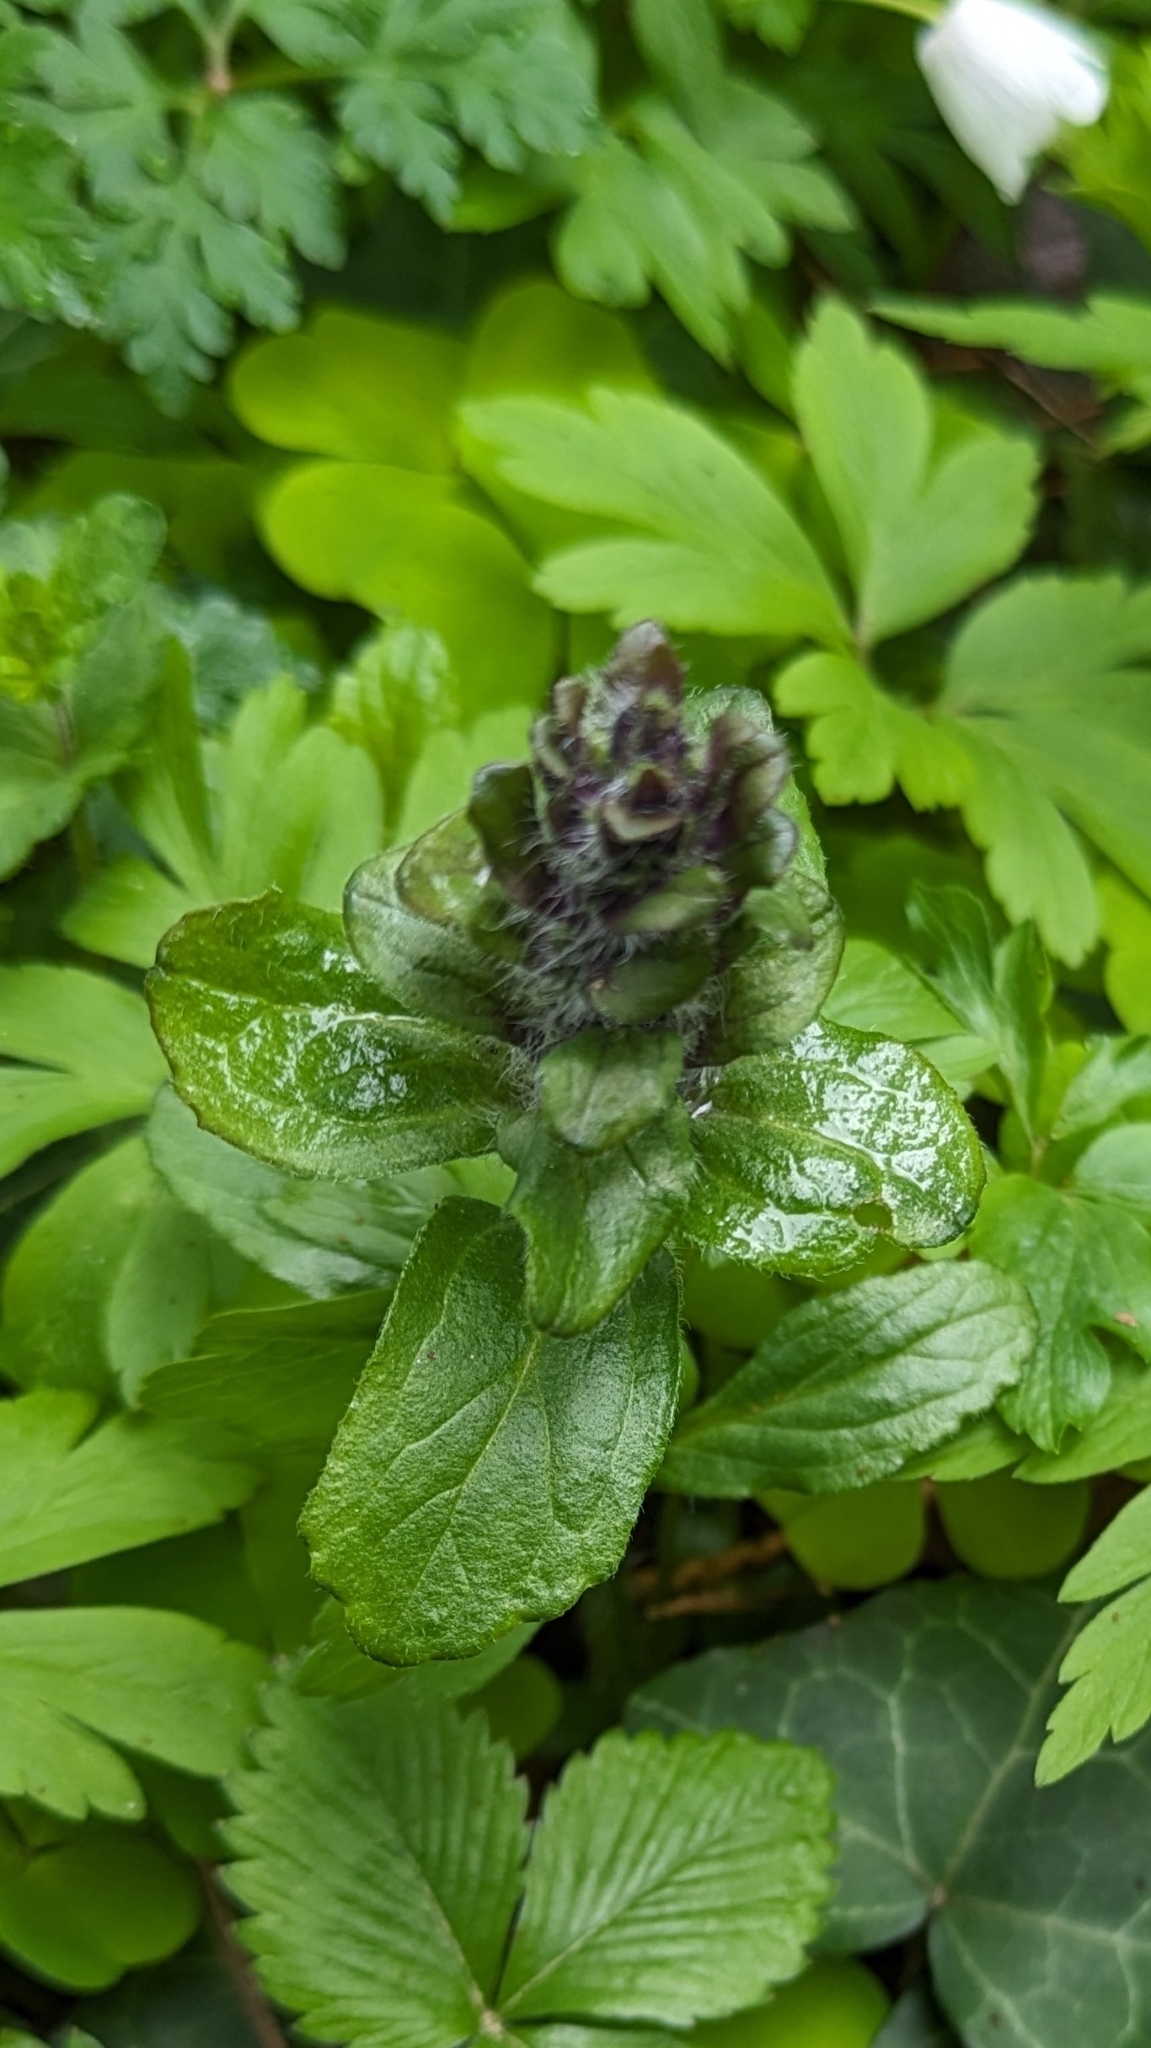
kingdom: Plantae
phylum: Tracheophyta
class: Magnoliopsida
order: Lamiales
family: Lamiaceae
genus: Ajuga
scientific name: Ajuga reptans
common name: Bugle
